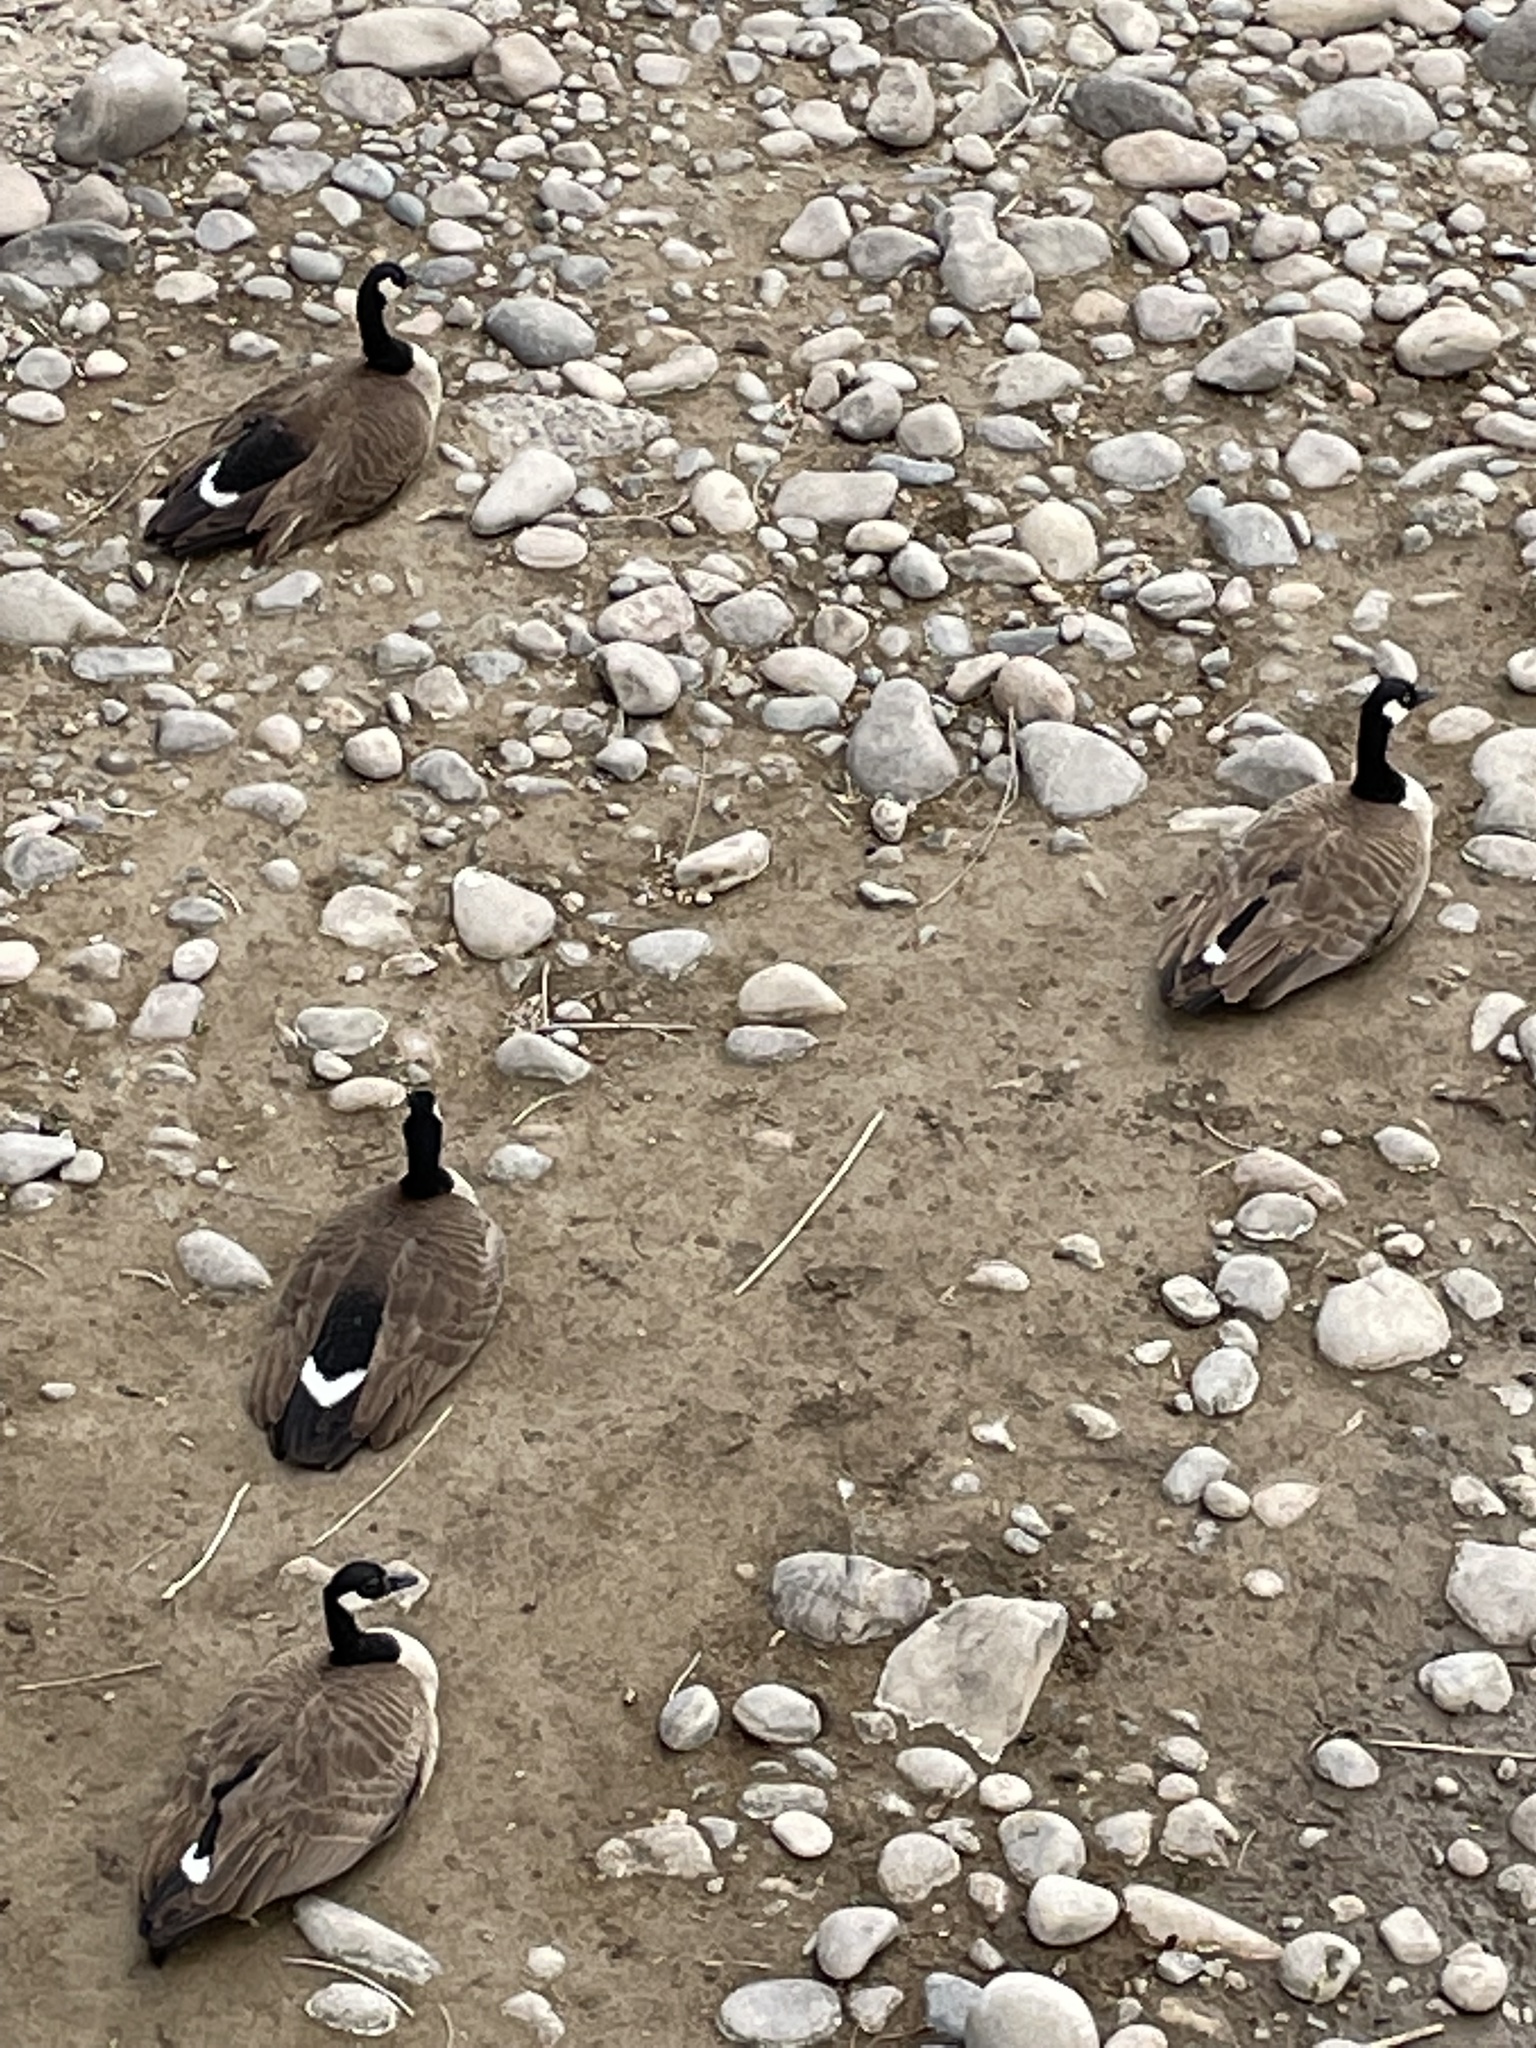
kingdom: Animalia
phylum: Chordata
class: Aves
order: Anseriformes
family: Anatidae
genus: Branta
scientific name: Branta canadensis
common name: Canada goose
